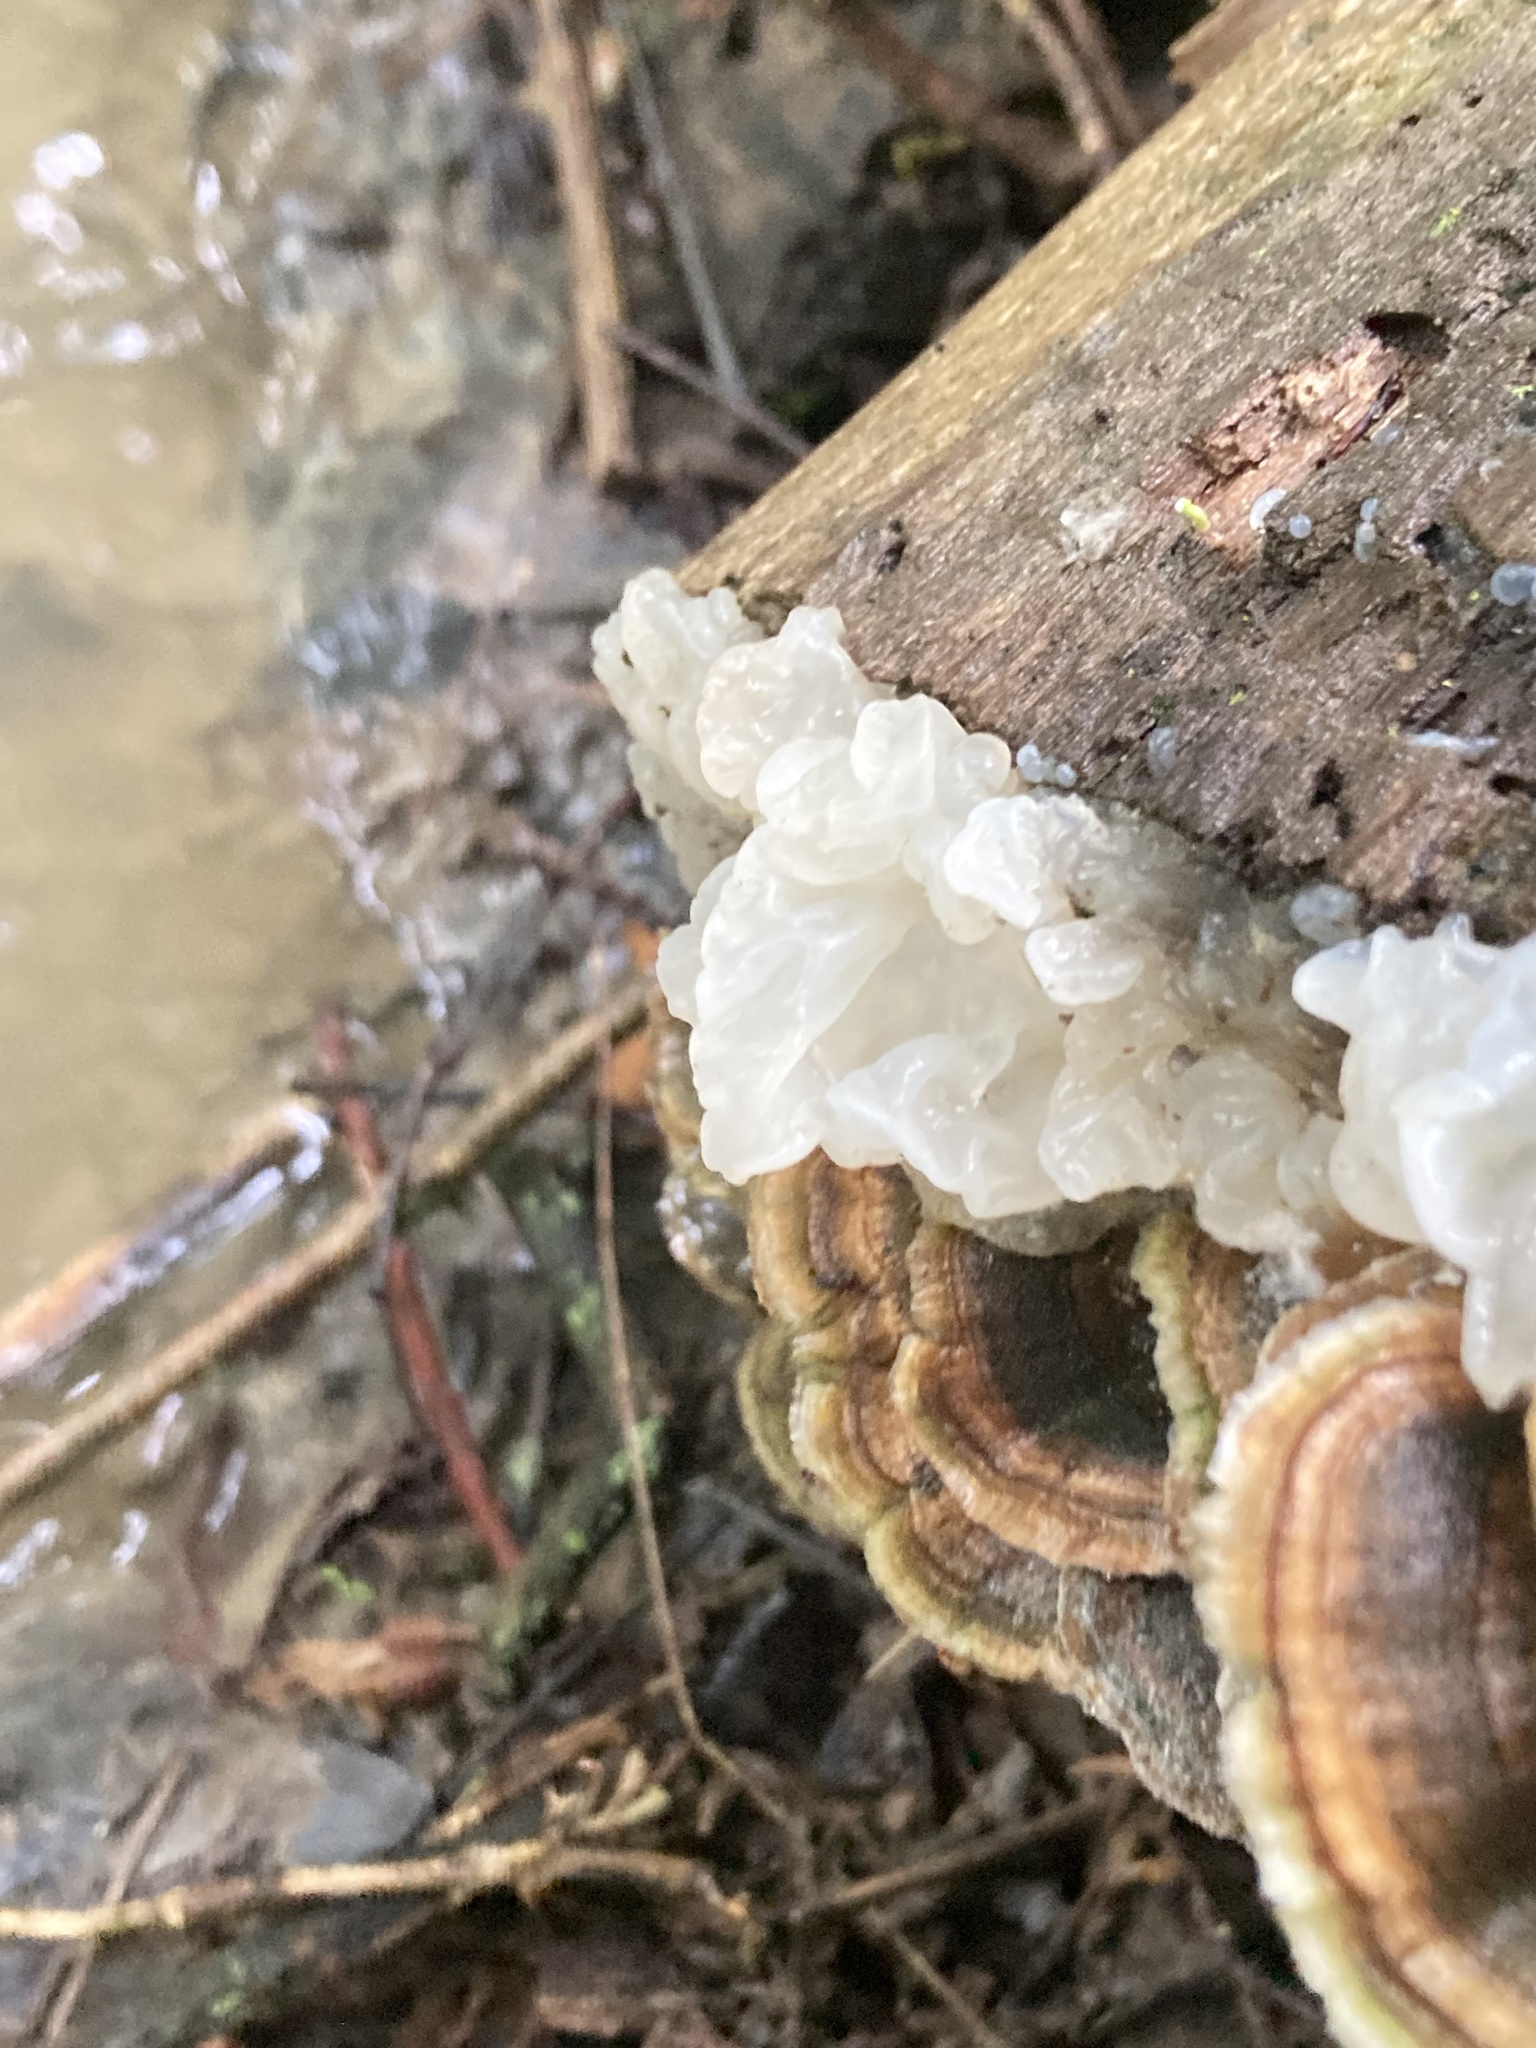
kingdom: Fungi
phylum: Basidiomycota
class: Agaricomycetes
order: Auriculariales
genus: Ductifera
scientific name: Ductifera pululahuana
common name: White jelly fungus
